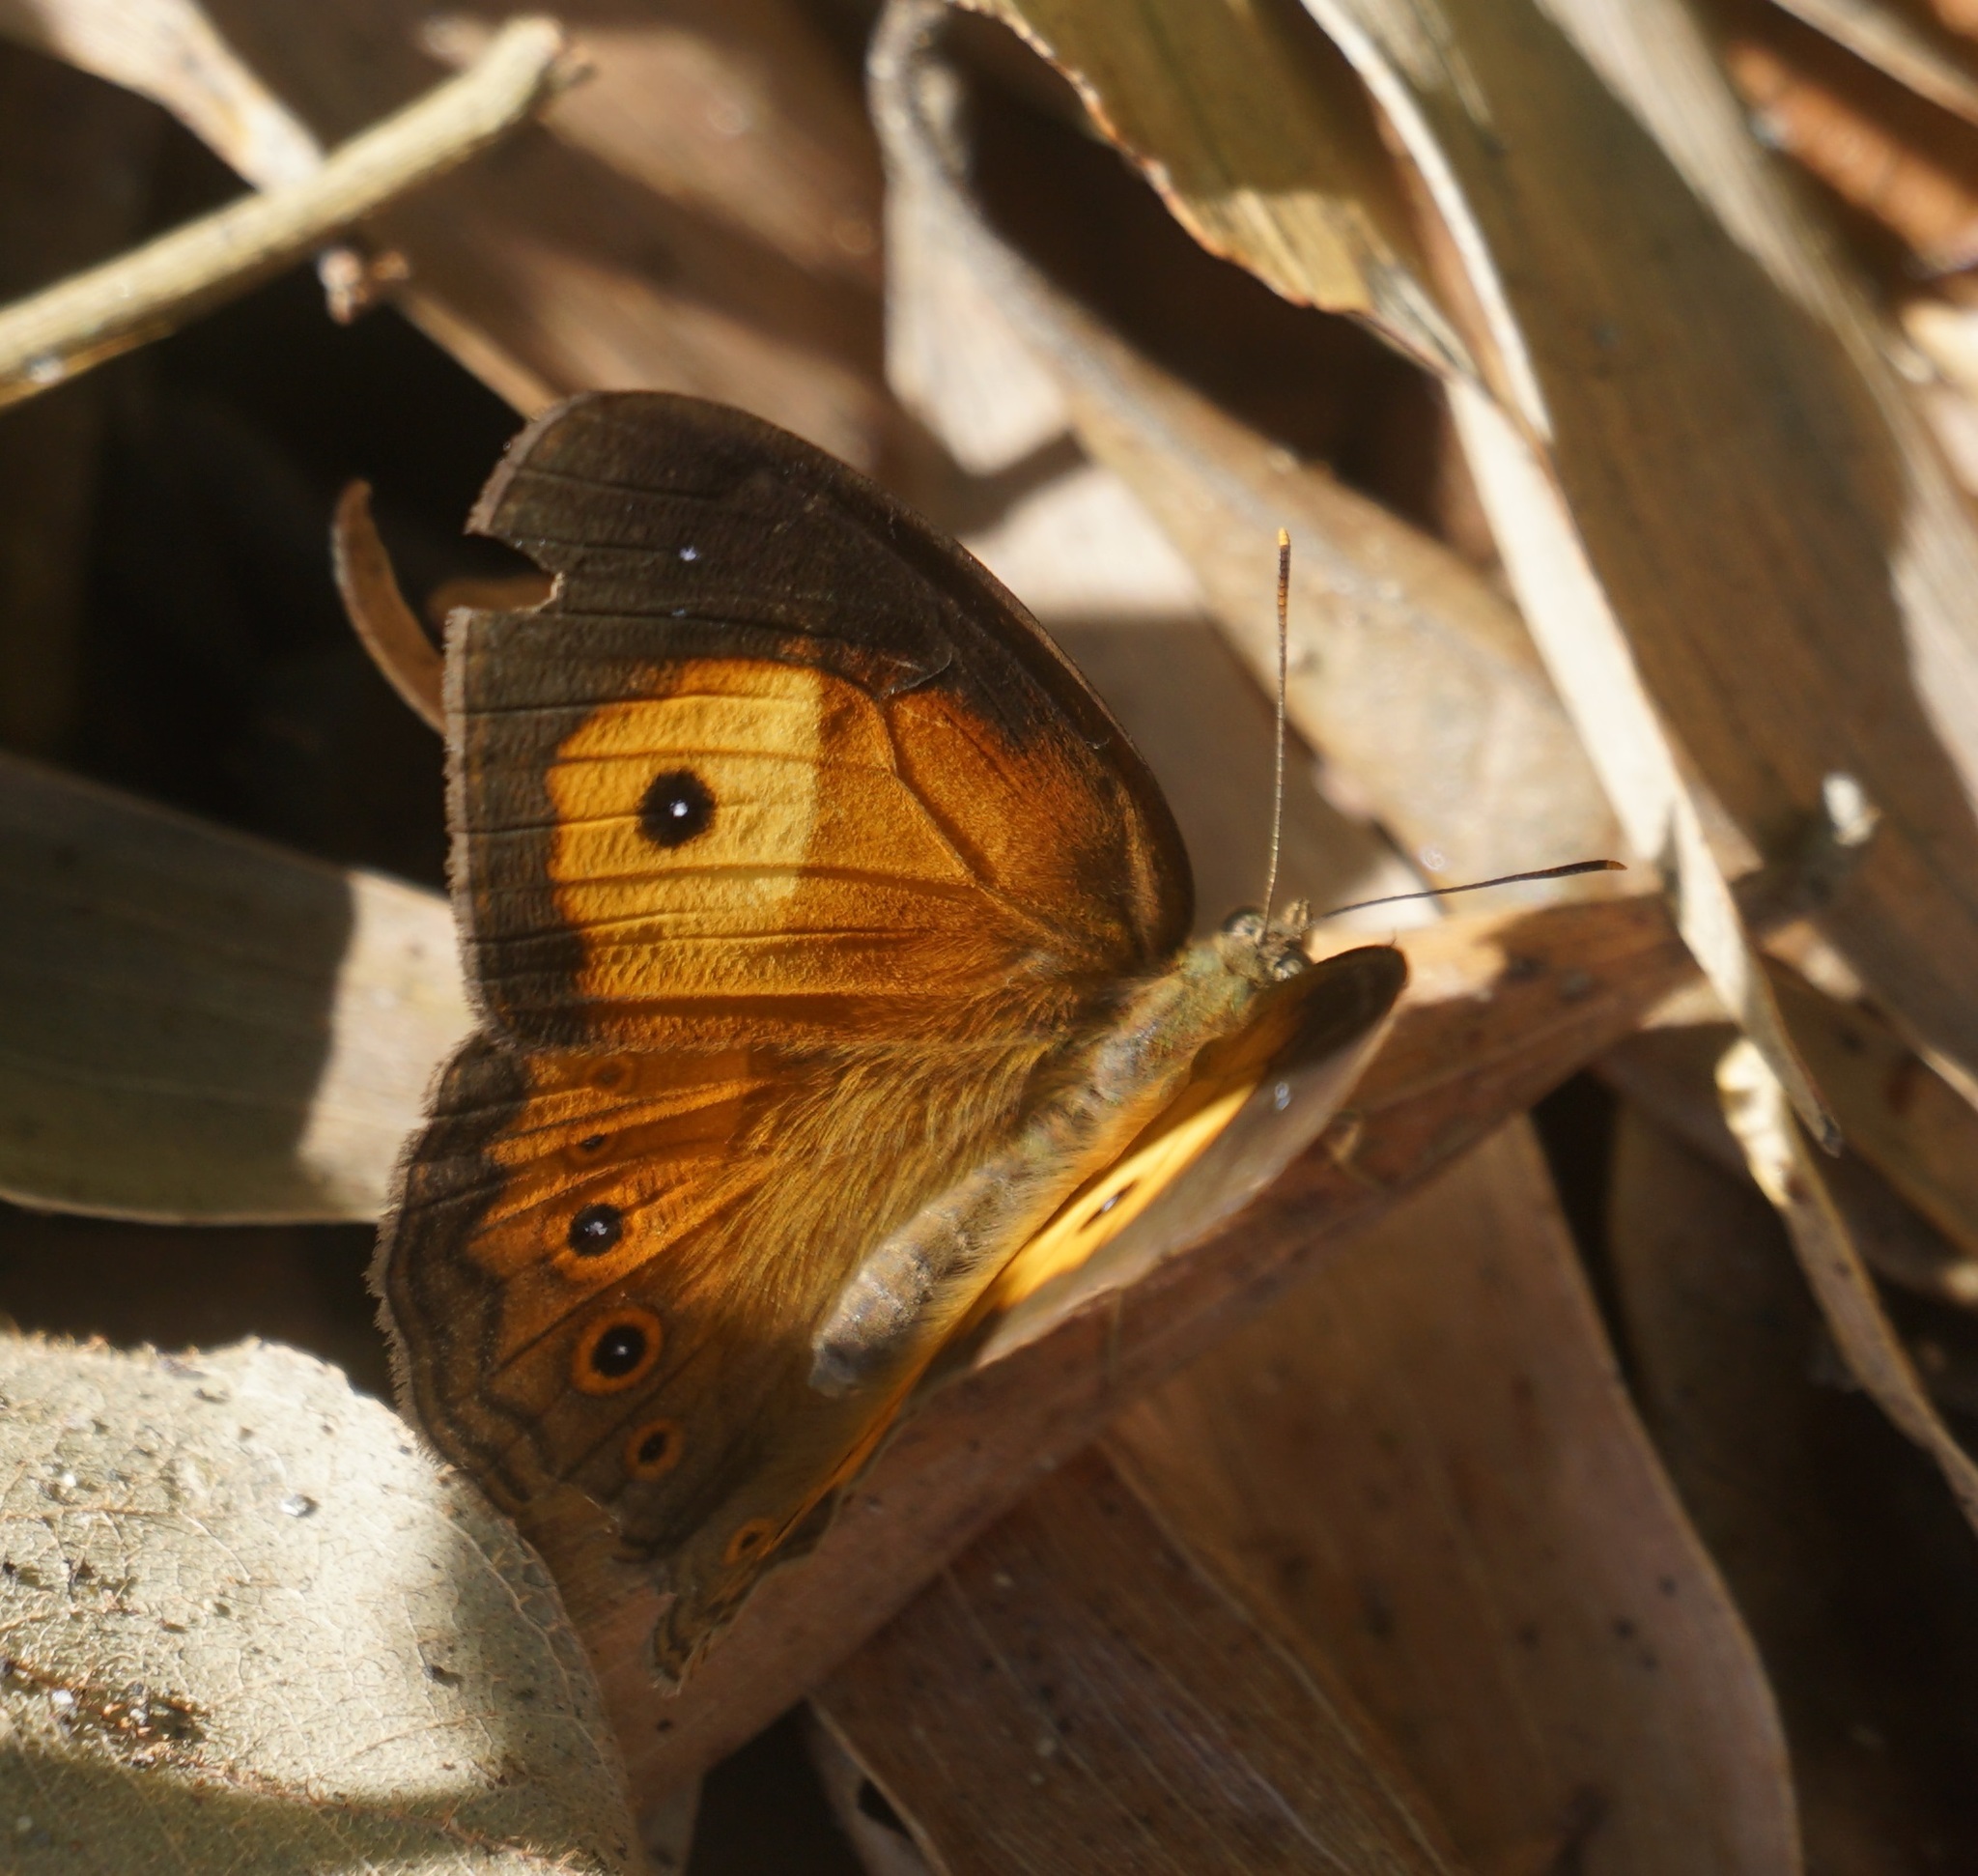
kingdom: Animalia
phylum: Arthropoda
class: Insecta
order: Lepidoptera
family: Nymphalidae
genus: Mycalesis
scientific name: Mycalesis terminus
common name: Orange bushbrown
